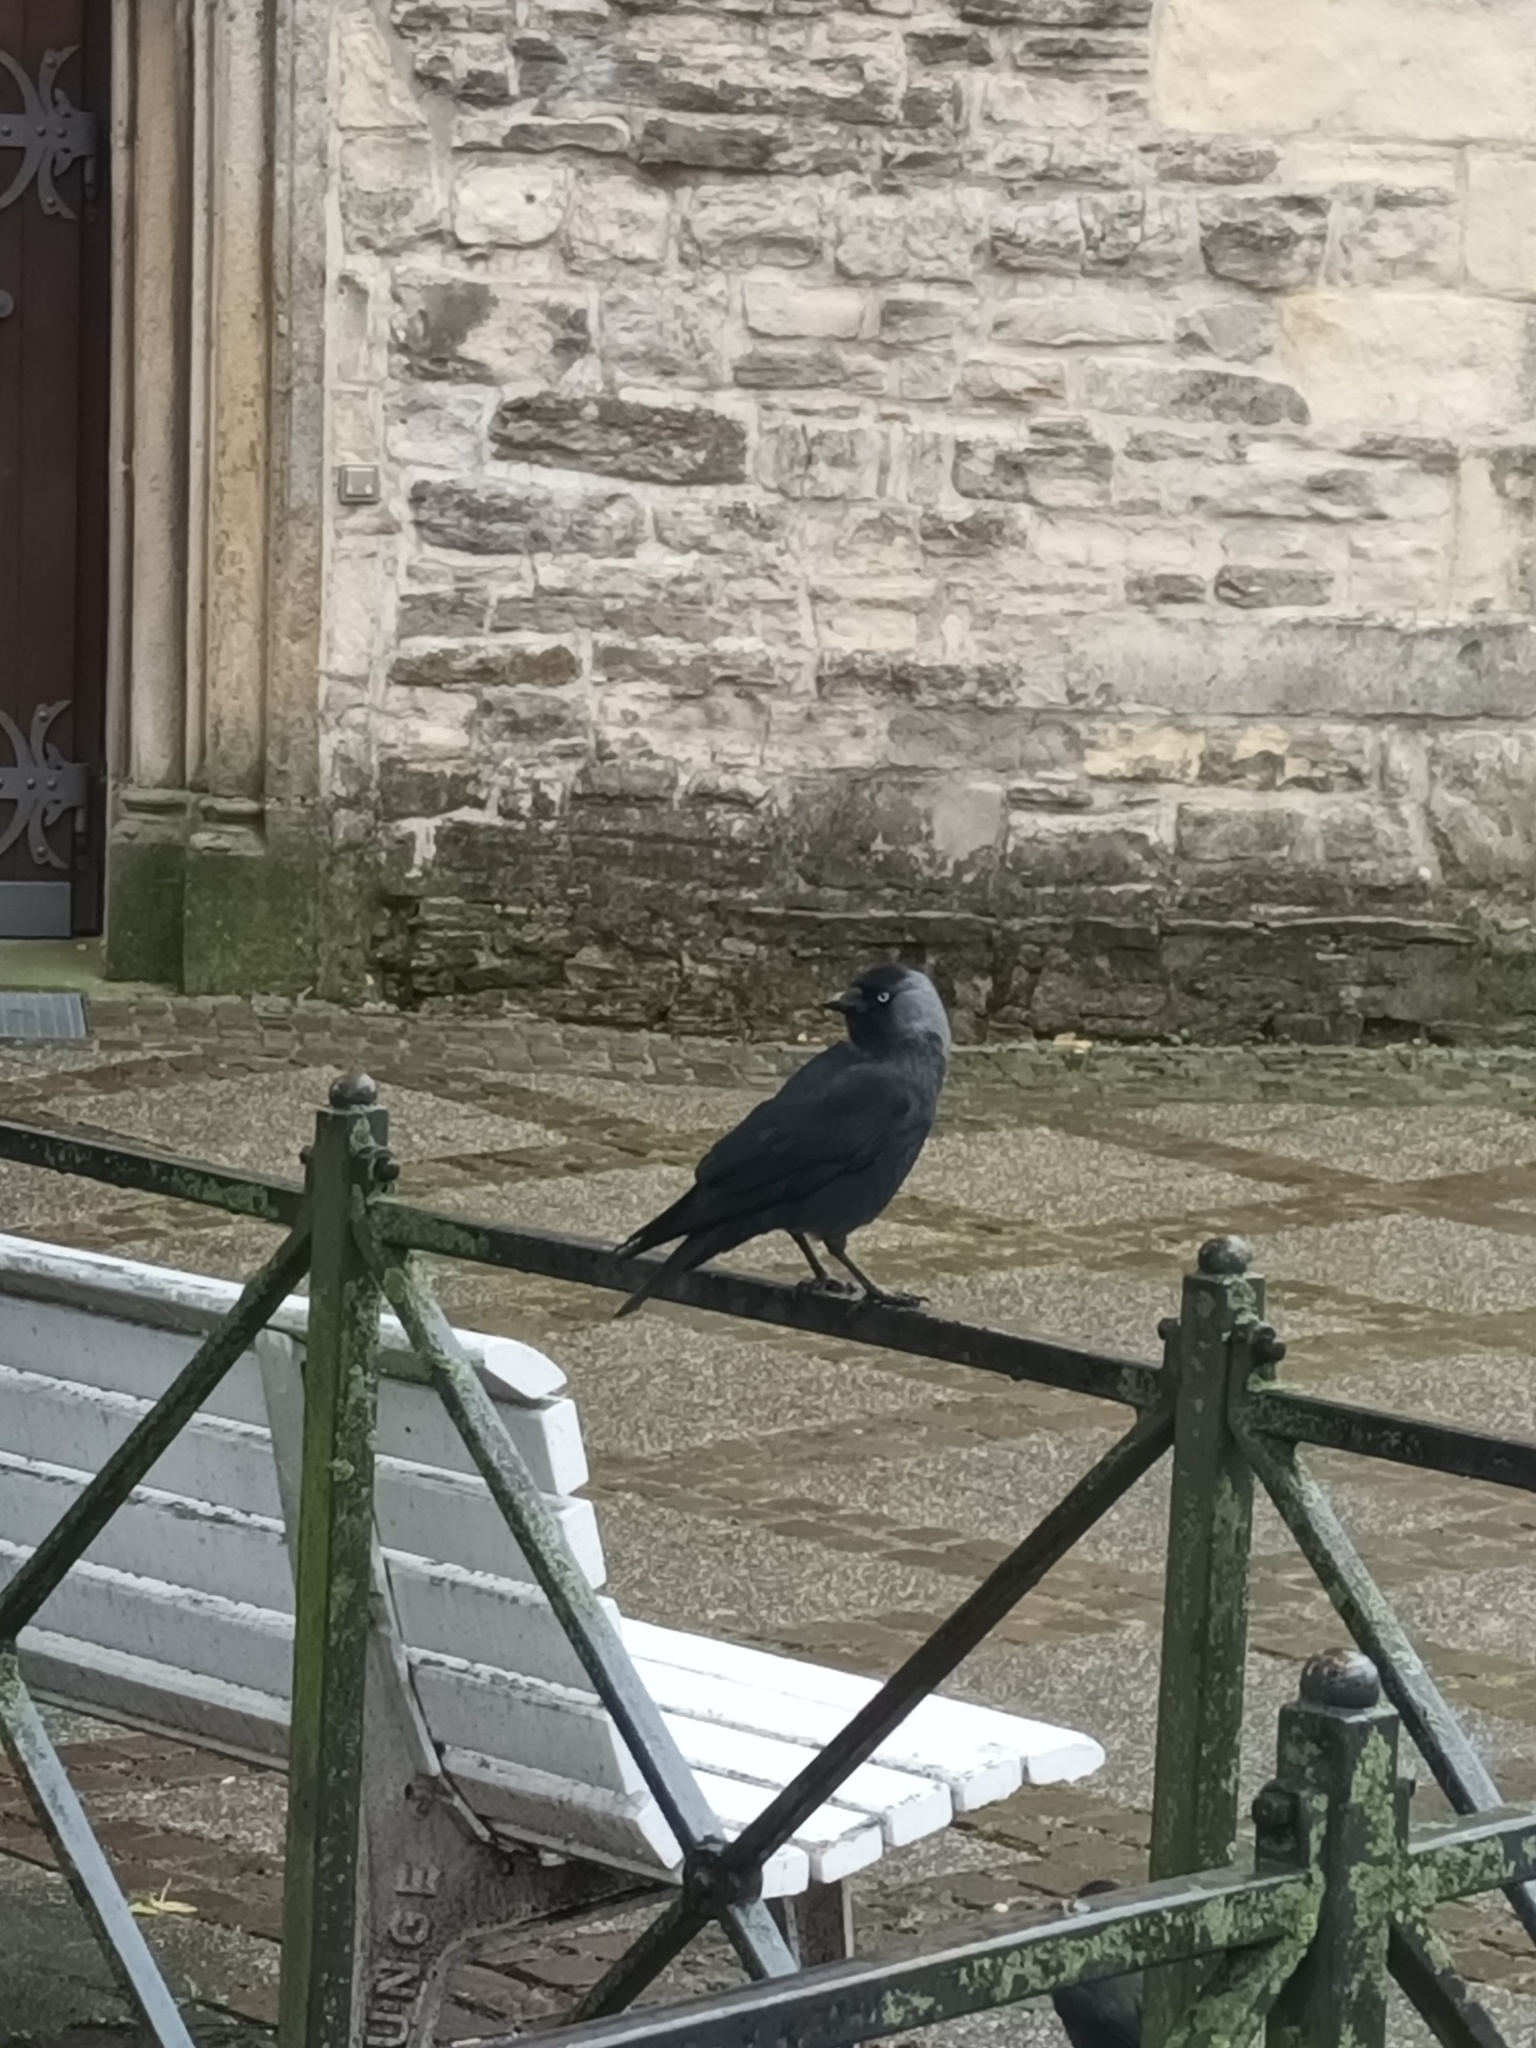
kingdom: Animalia
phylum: Chordata
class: Aves
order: Passeriformes
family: Corvidae
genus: Coloeus
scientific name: Coloeus monedula
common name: Western jackdaw
